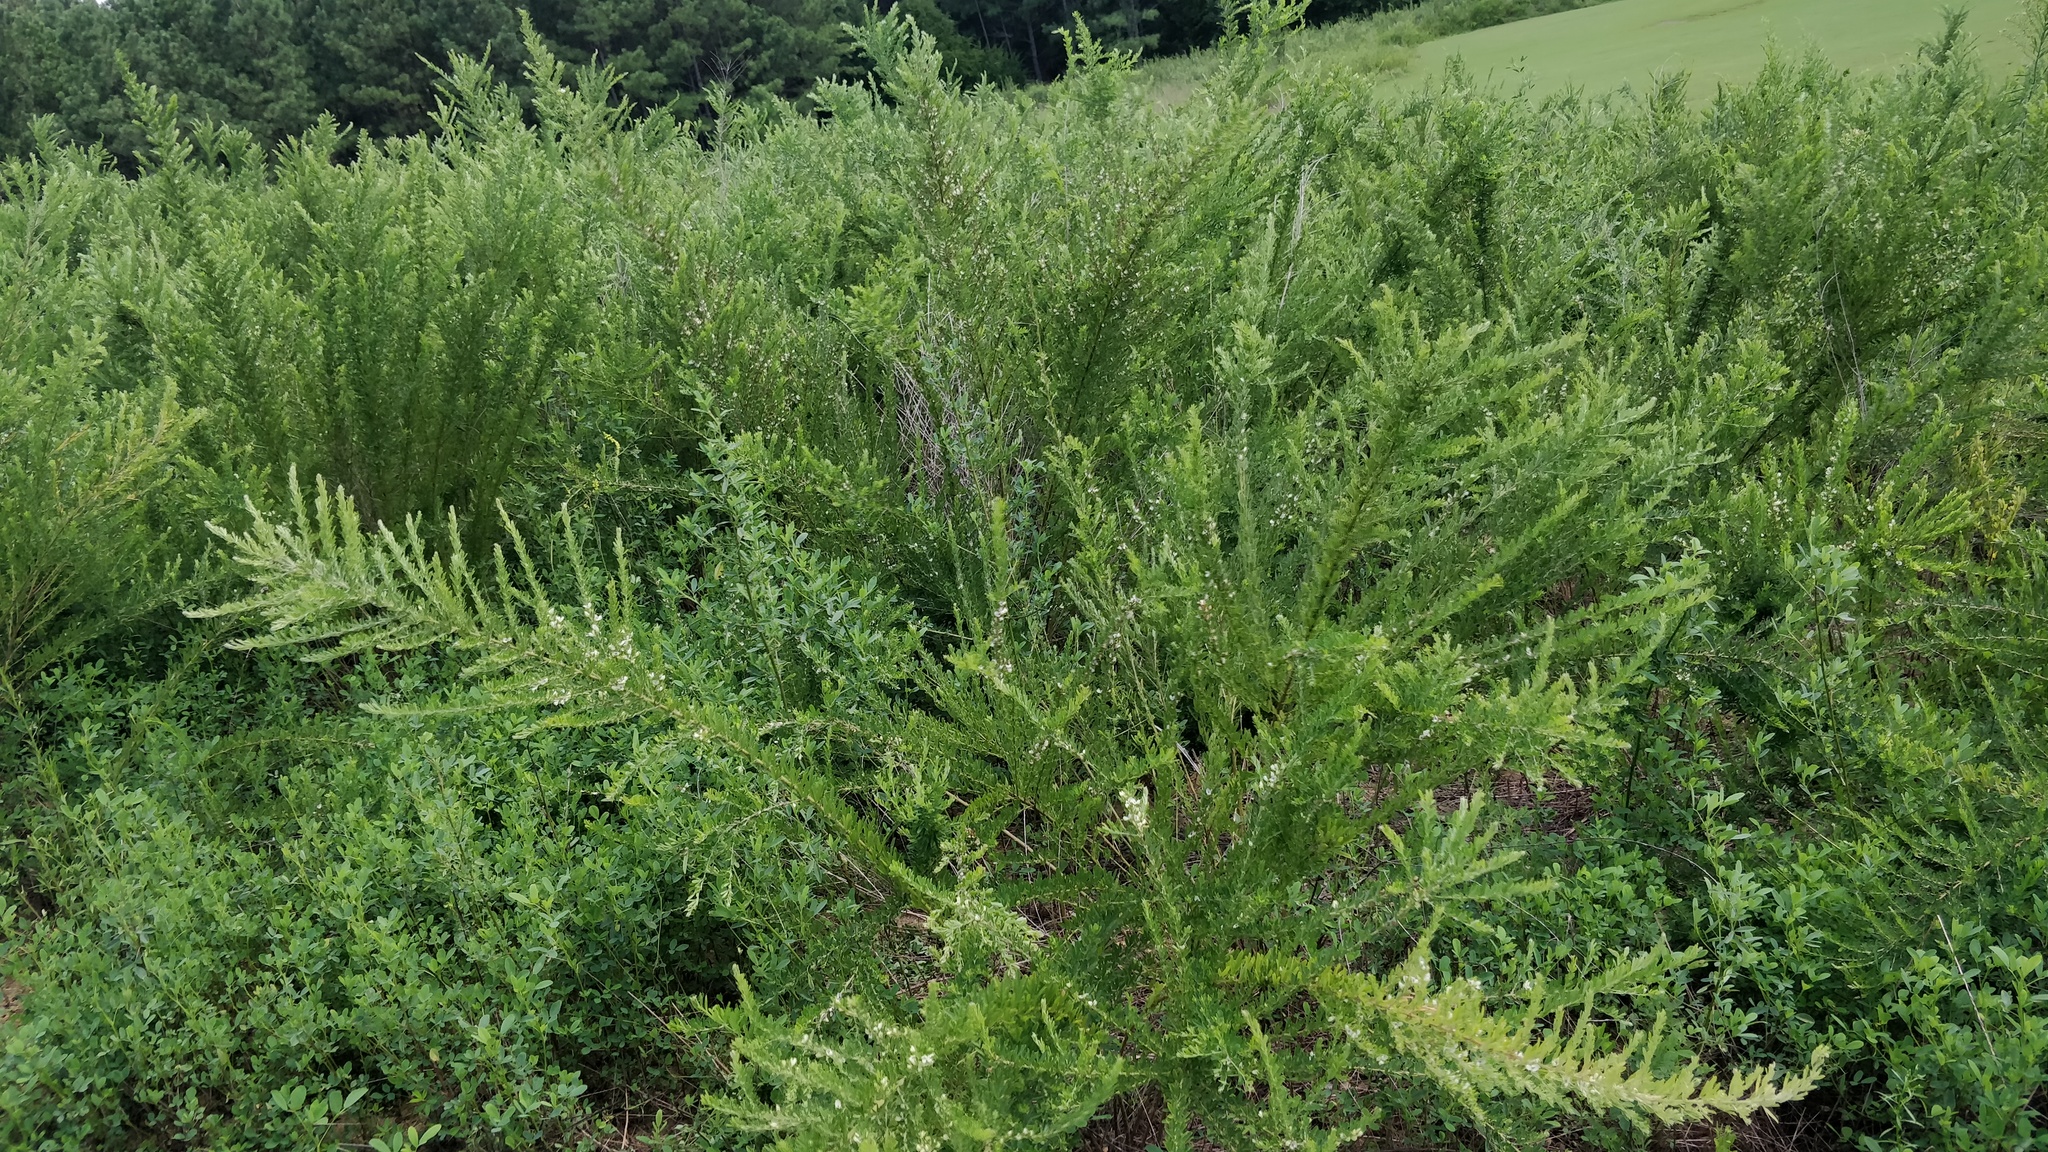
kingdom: Plantae
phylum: Tracheophyta
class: Magnoliopsida
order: Fabales
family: Fabaceae
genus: Lespedeza
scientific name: Lespedeza cuneata
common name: Chinese bush-clover
